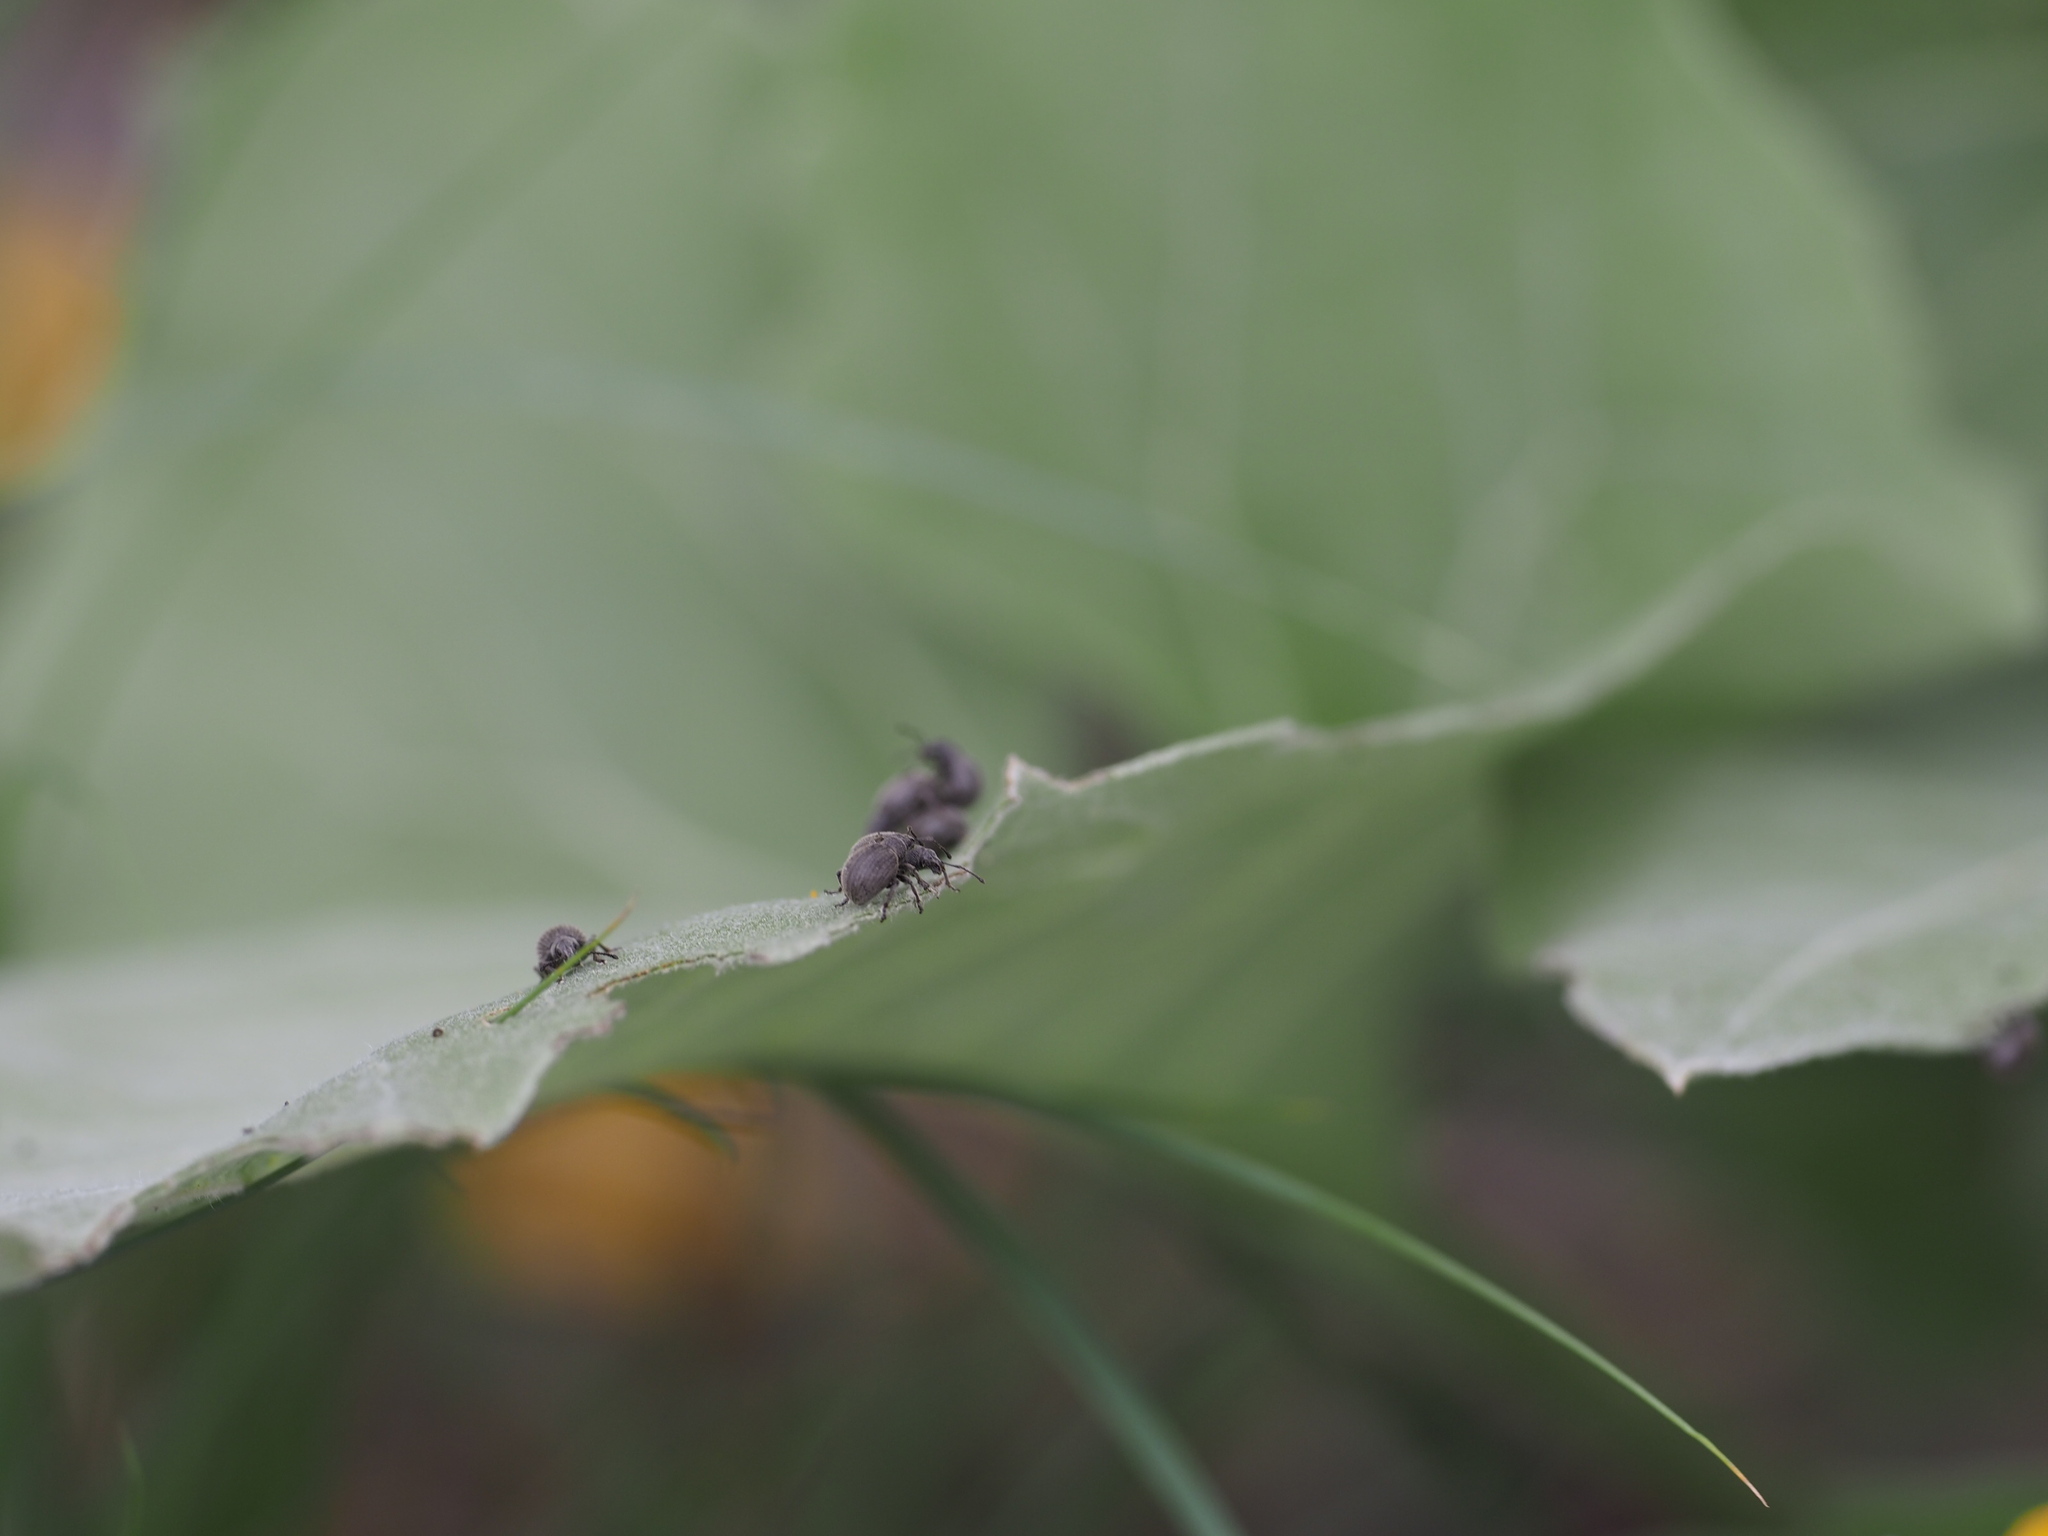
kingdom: Animalia
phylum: Arthropoda
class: Insecta
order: Coleoptera
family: Curculionidae
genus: Omias
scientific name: Omias saccatus
